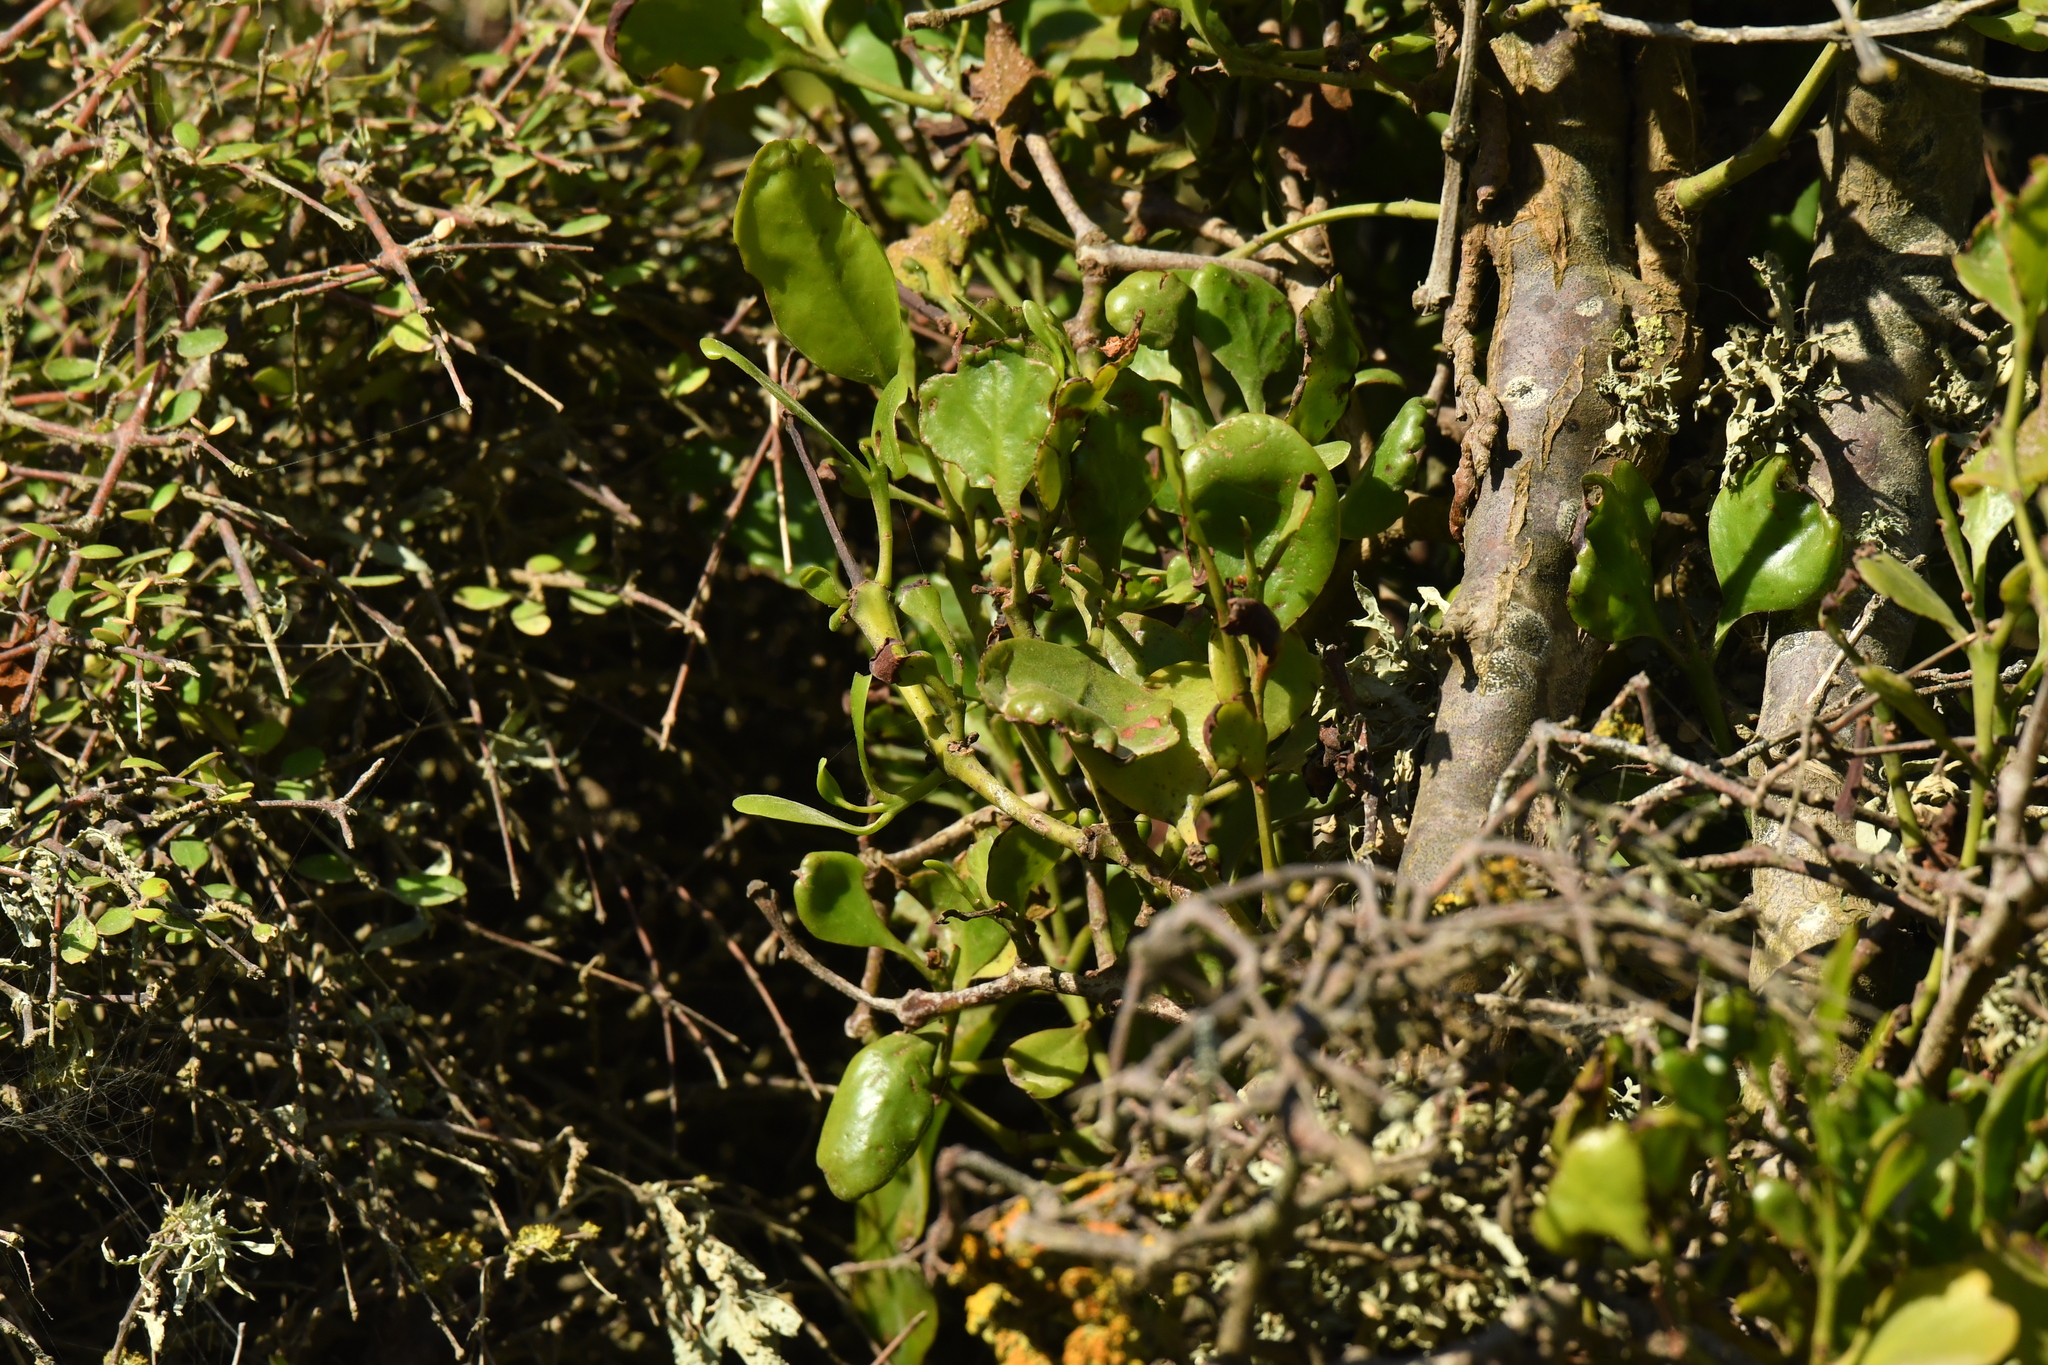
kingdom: Plantae
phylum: Tracheophyta
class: Magnoliopsida
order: Santalales
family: Loranthaceae
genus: Ileostylus
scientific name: Ileostylus micranthus
